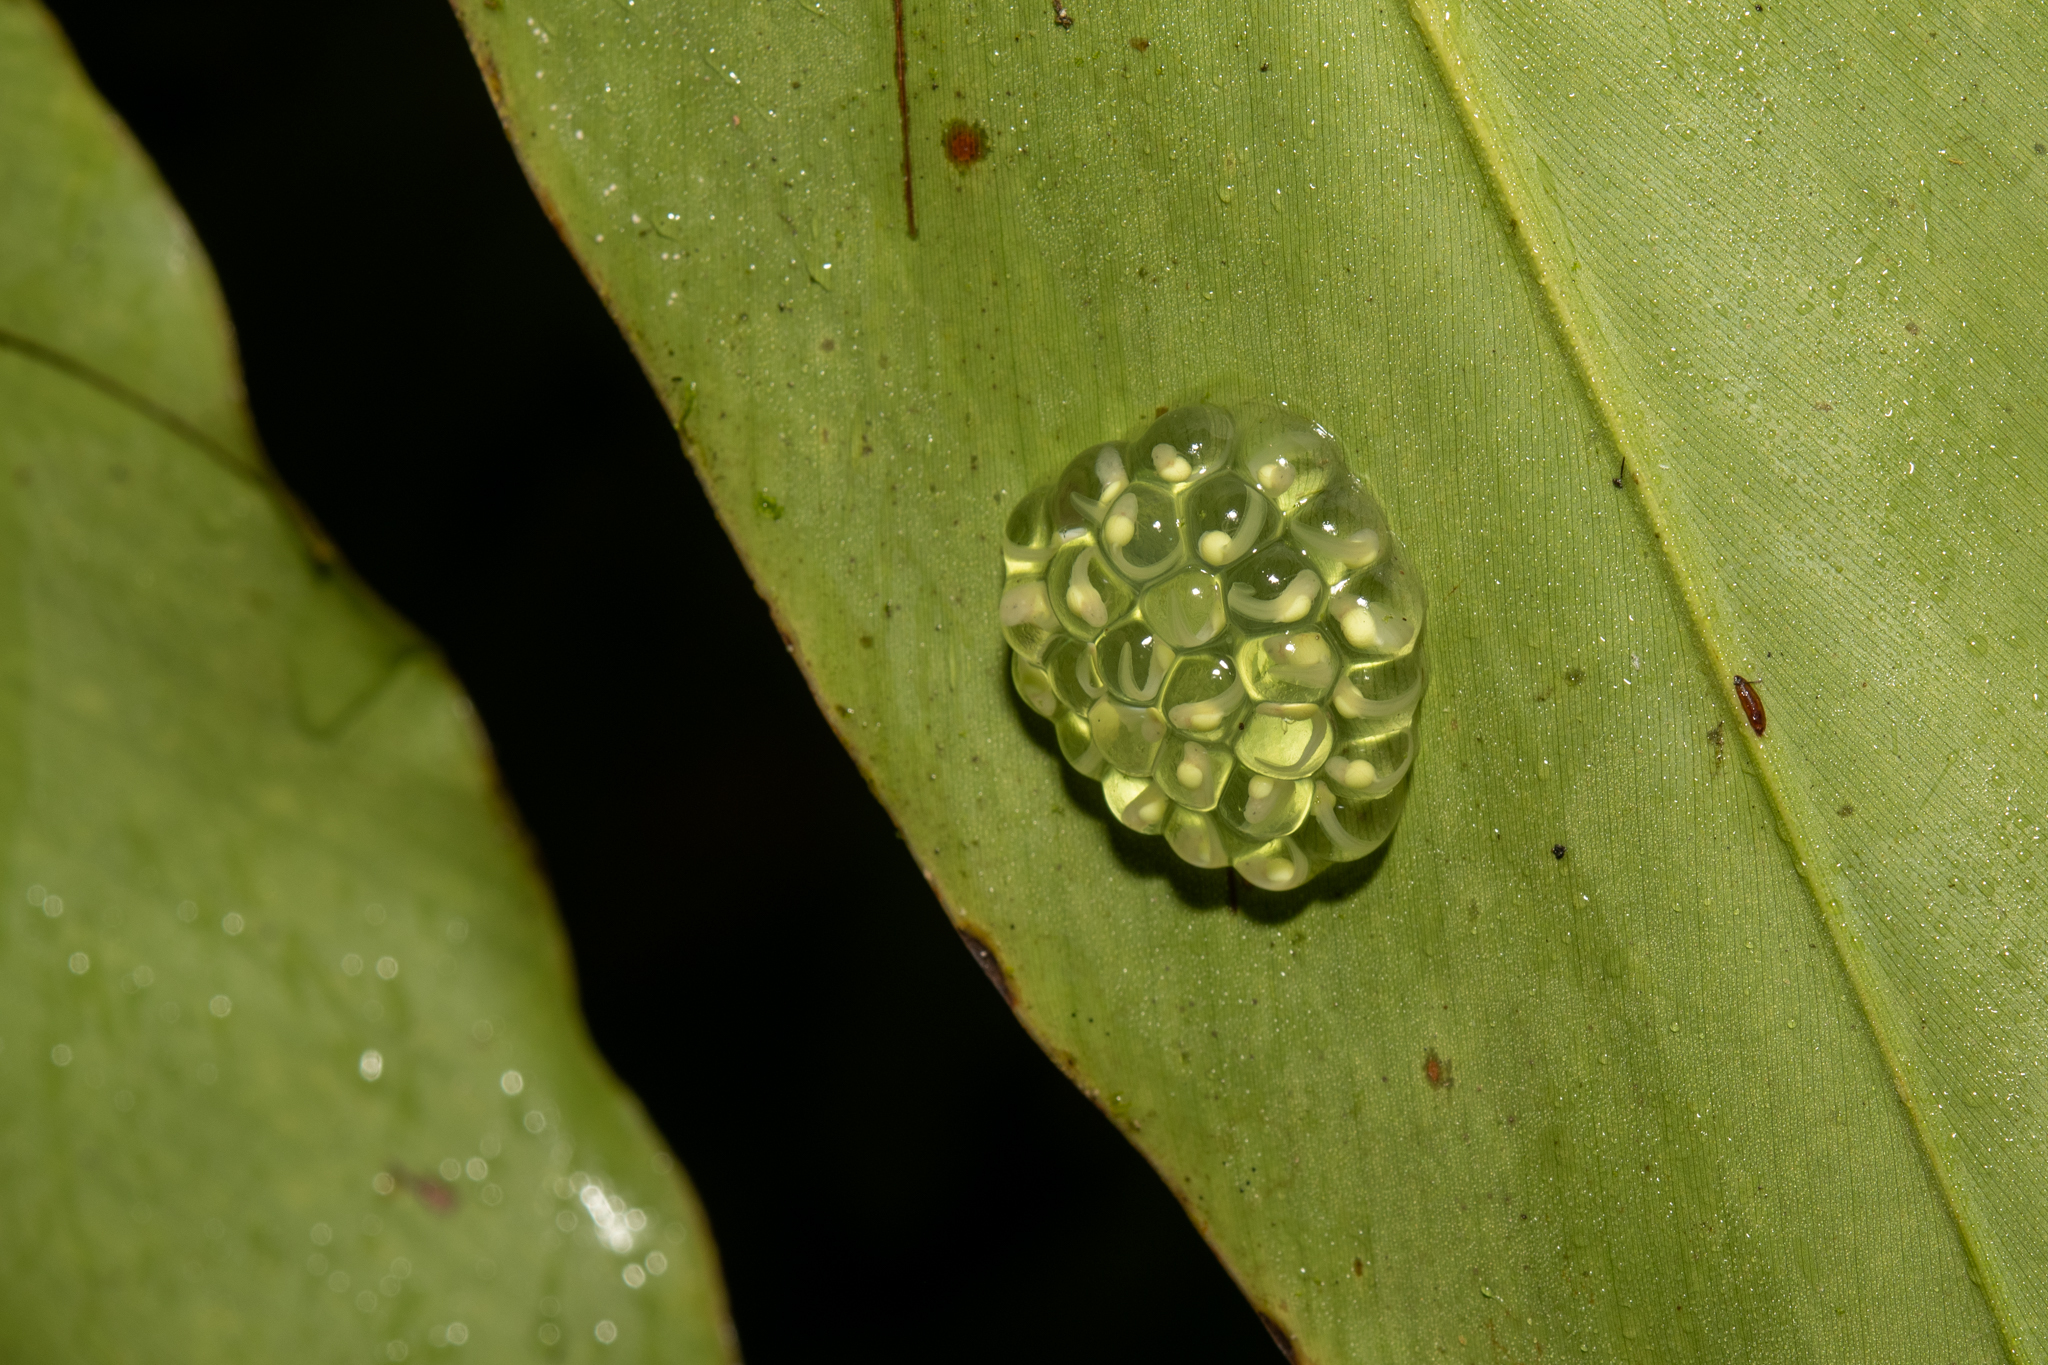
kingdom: Animalia
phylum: Chordata
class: Amphibia
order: Anura
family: Centrolenidae
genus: Hyalinobatrachium
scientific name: Hyalinobatrachium
